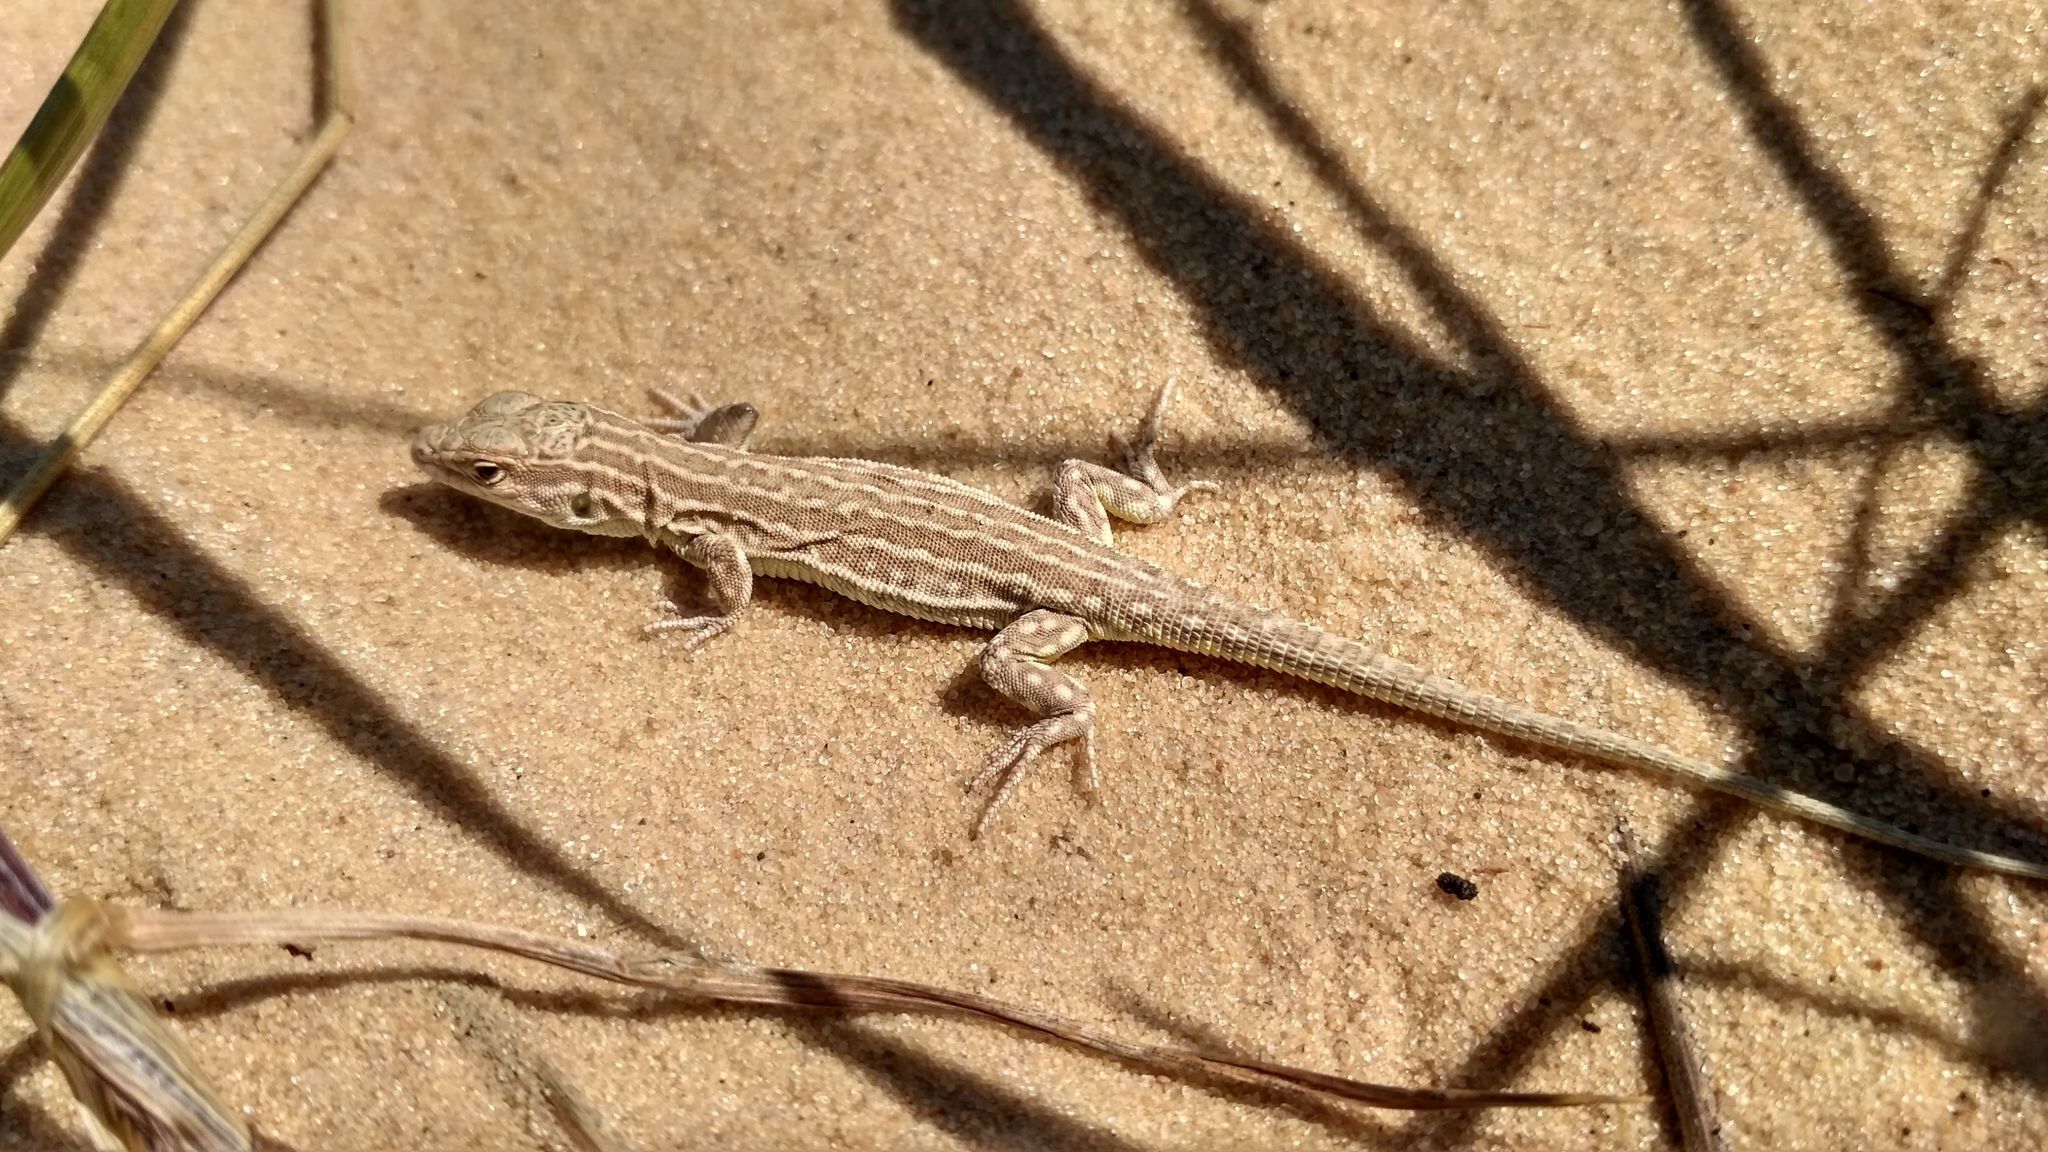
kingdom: Animalia
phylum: Chordata
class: Squamata
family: Lacertidae
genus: Eremias
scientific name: Eremias arguta
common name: Racerunner
